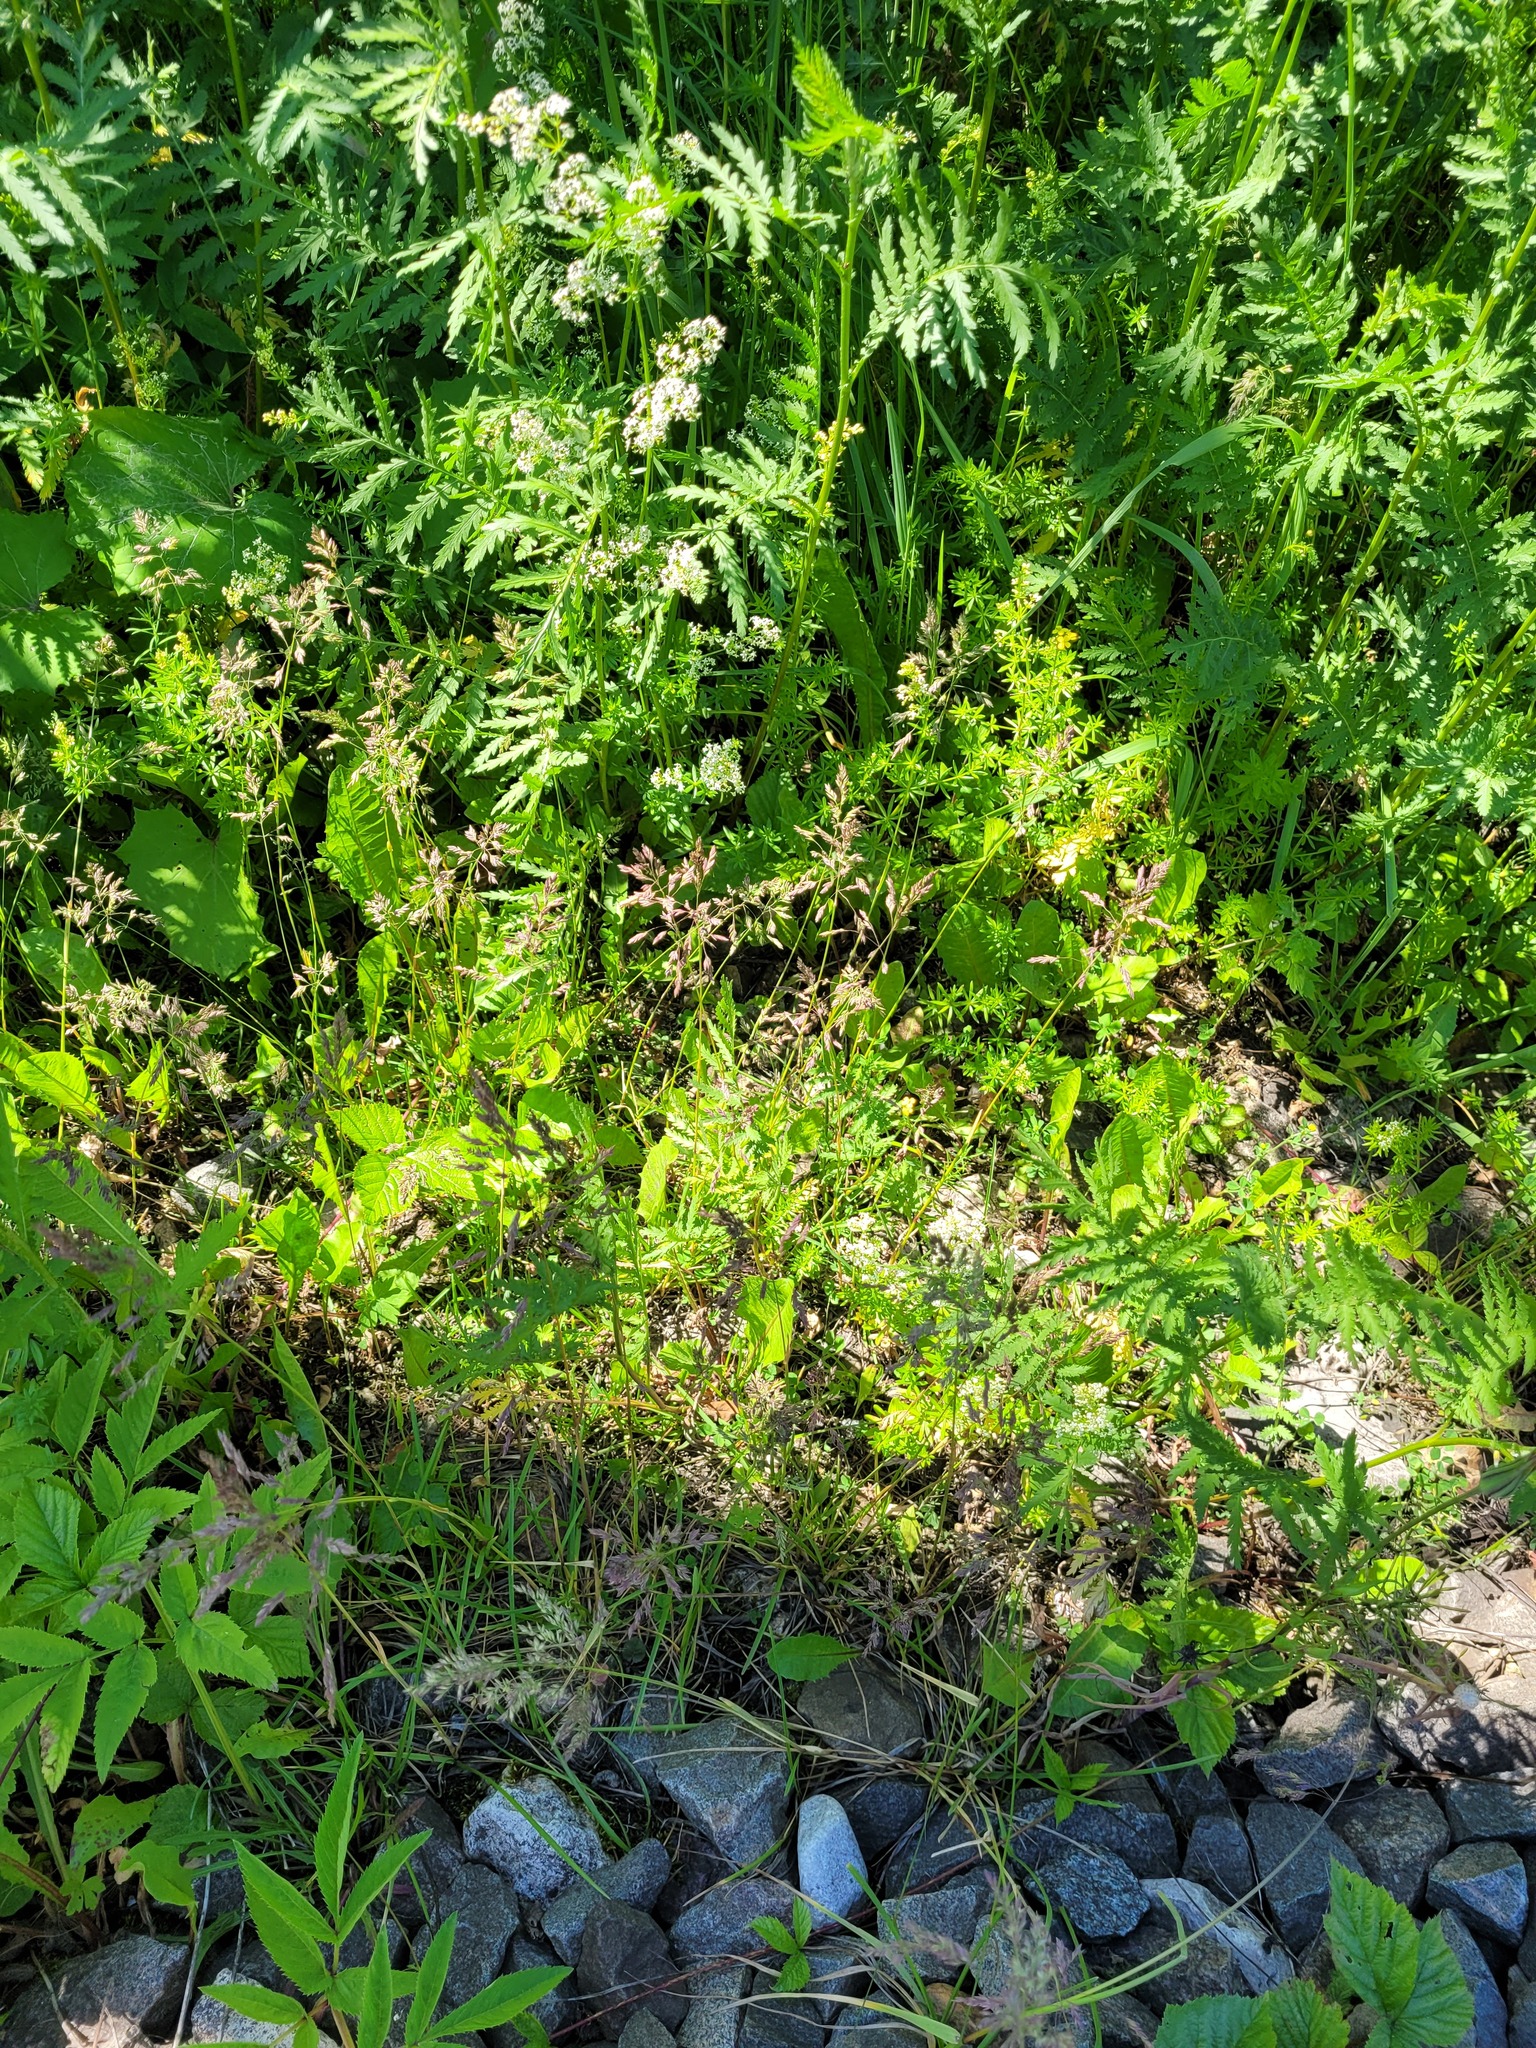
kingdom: Plantae
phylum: Tracheophyta
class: Liliopsida
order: Poales
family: Poaceae
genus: Poa
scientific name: Poa pratensis
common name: Kentucky bluegrass
